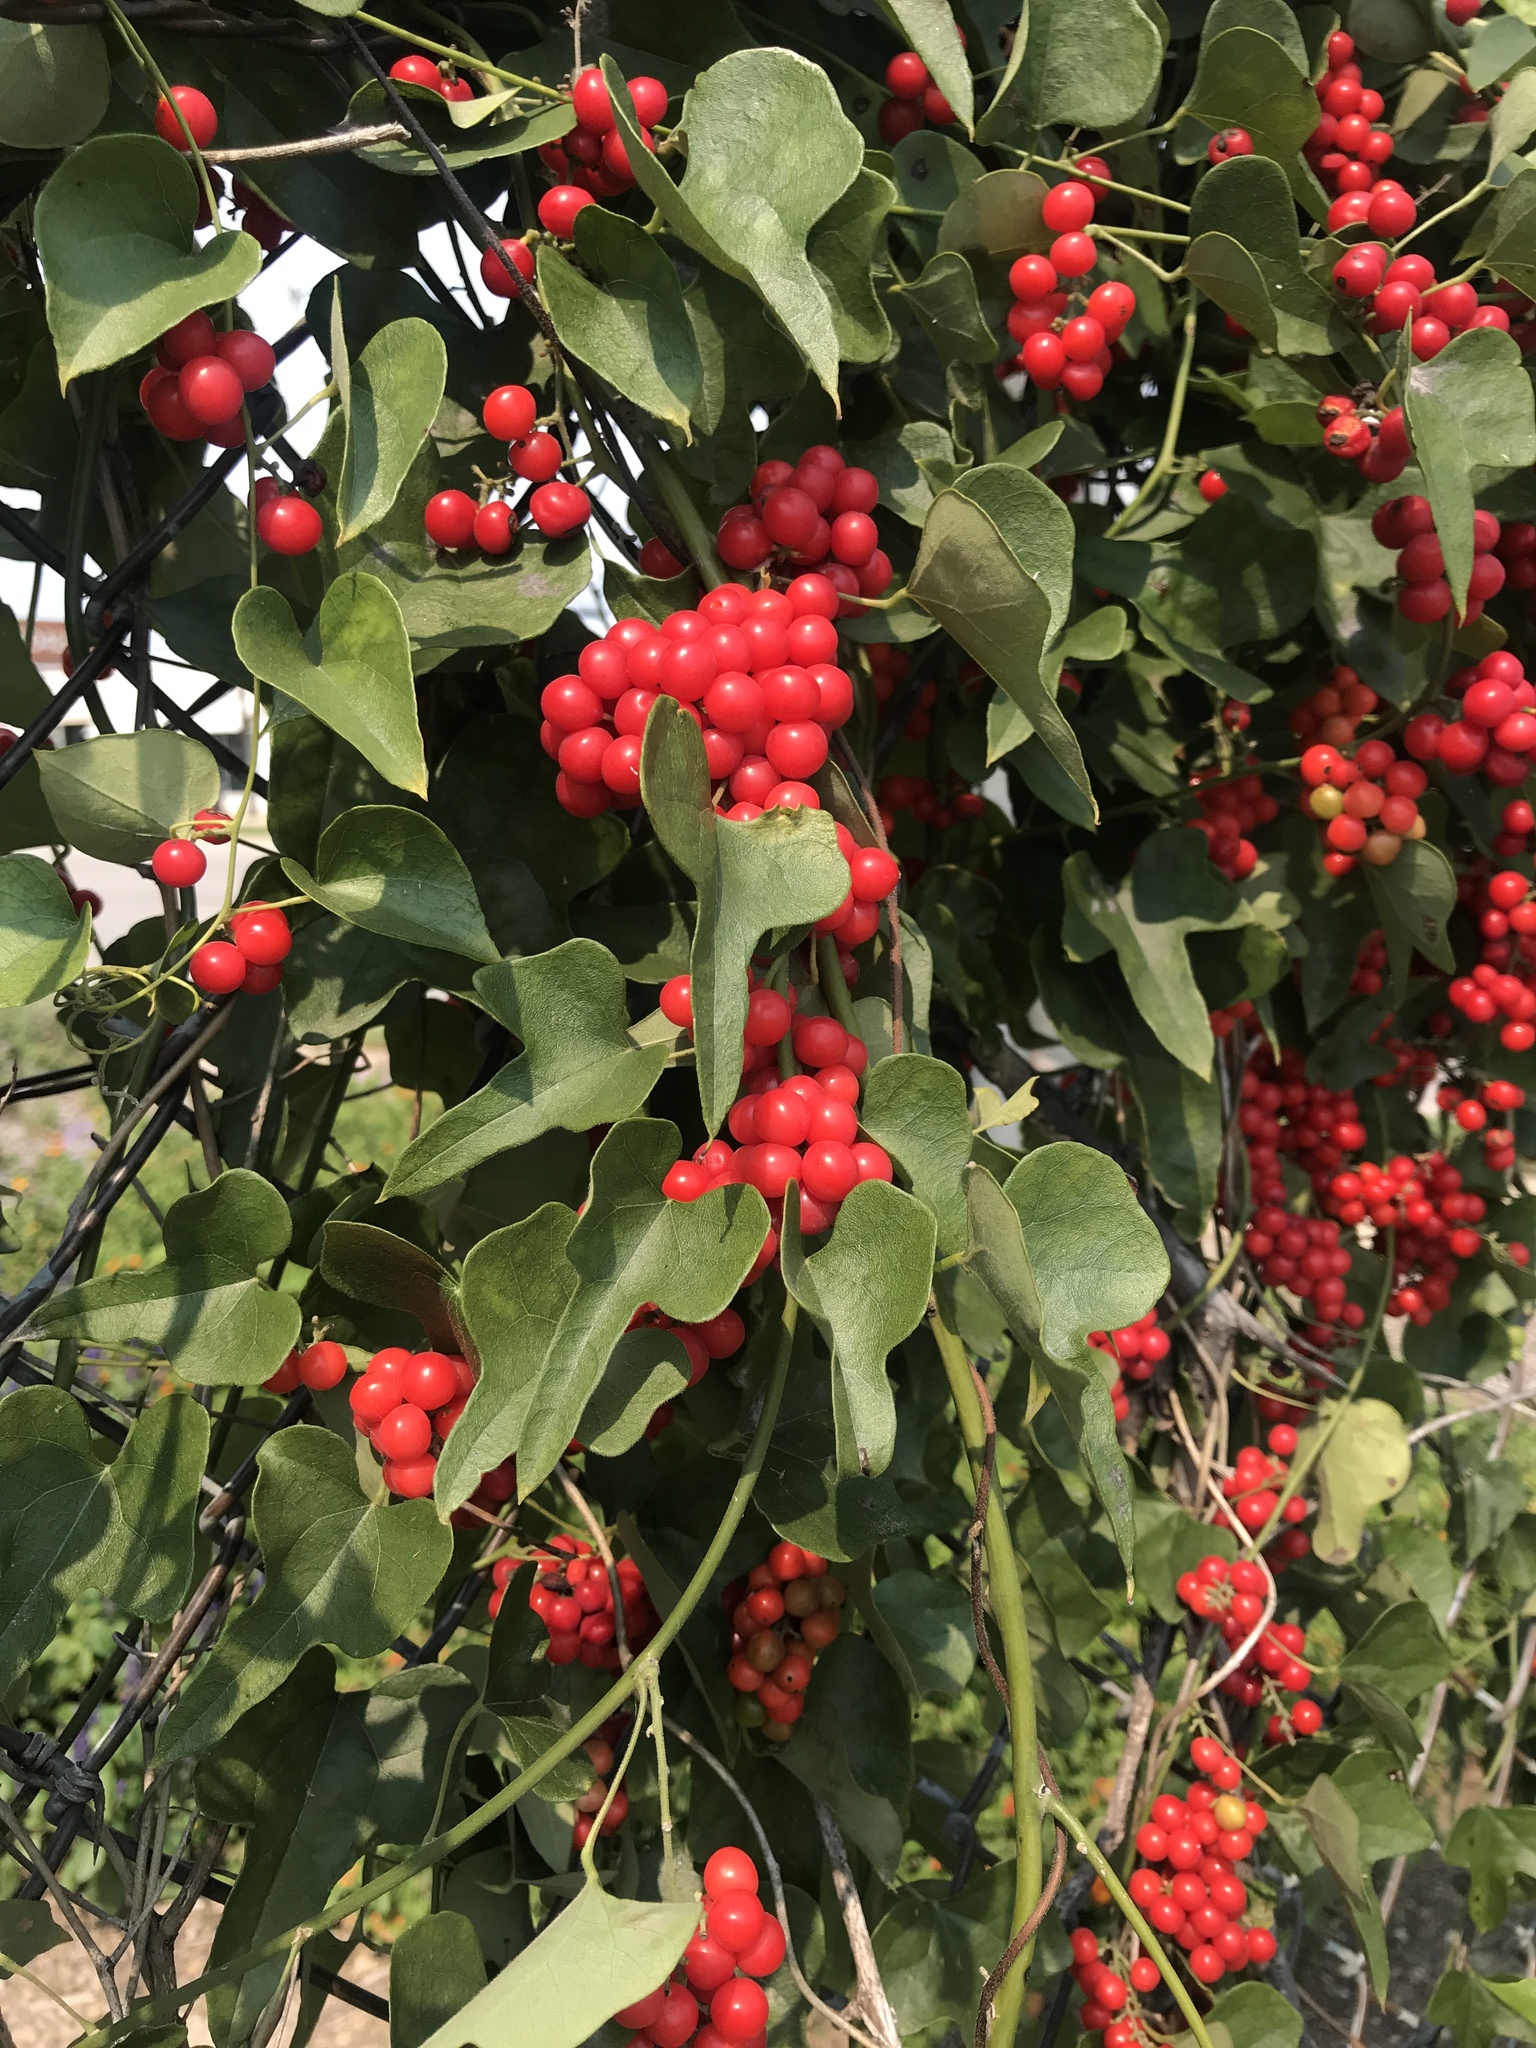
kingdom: Plantae
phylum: Tracheophyta
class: Magnoliopsida
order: Ranunculales
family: Menispermaceae
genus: Cocculus
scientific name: Cocculus carolinus
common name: Carolina moonseed
